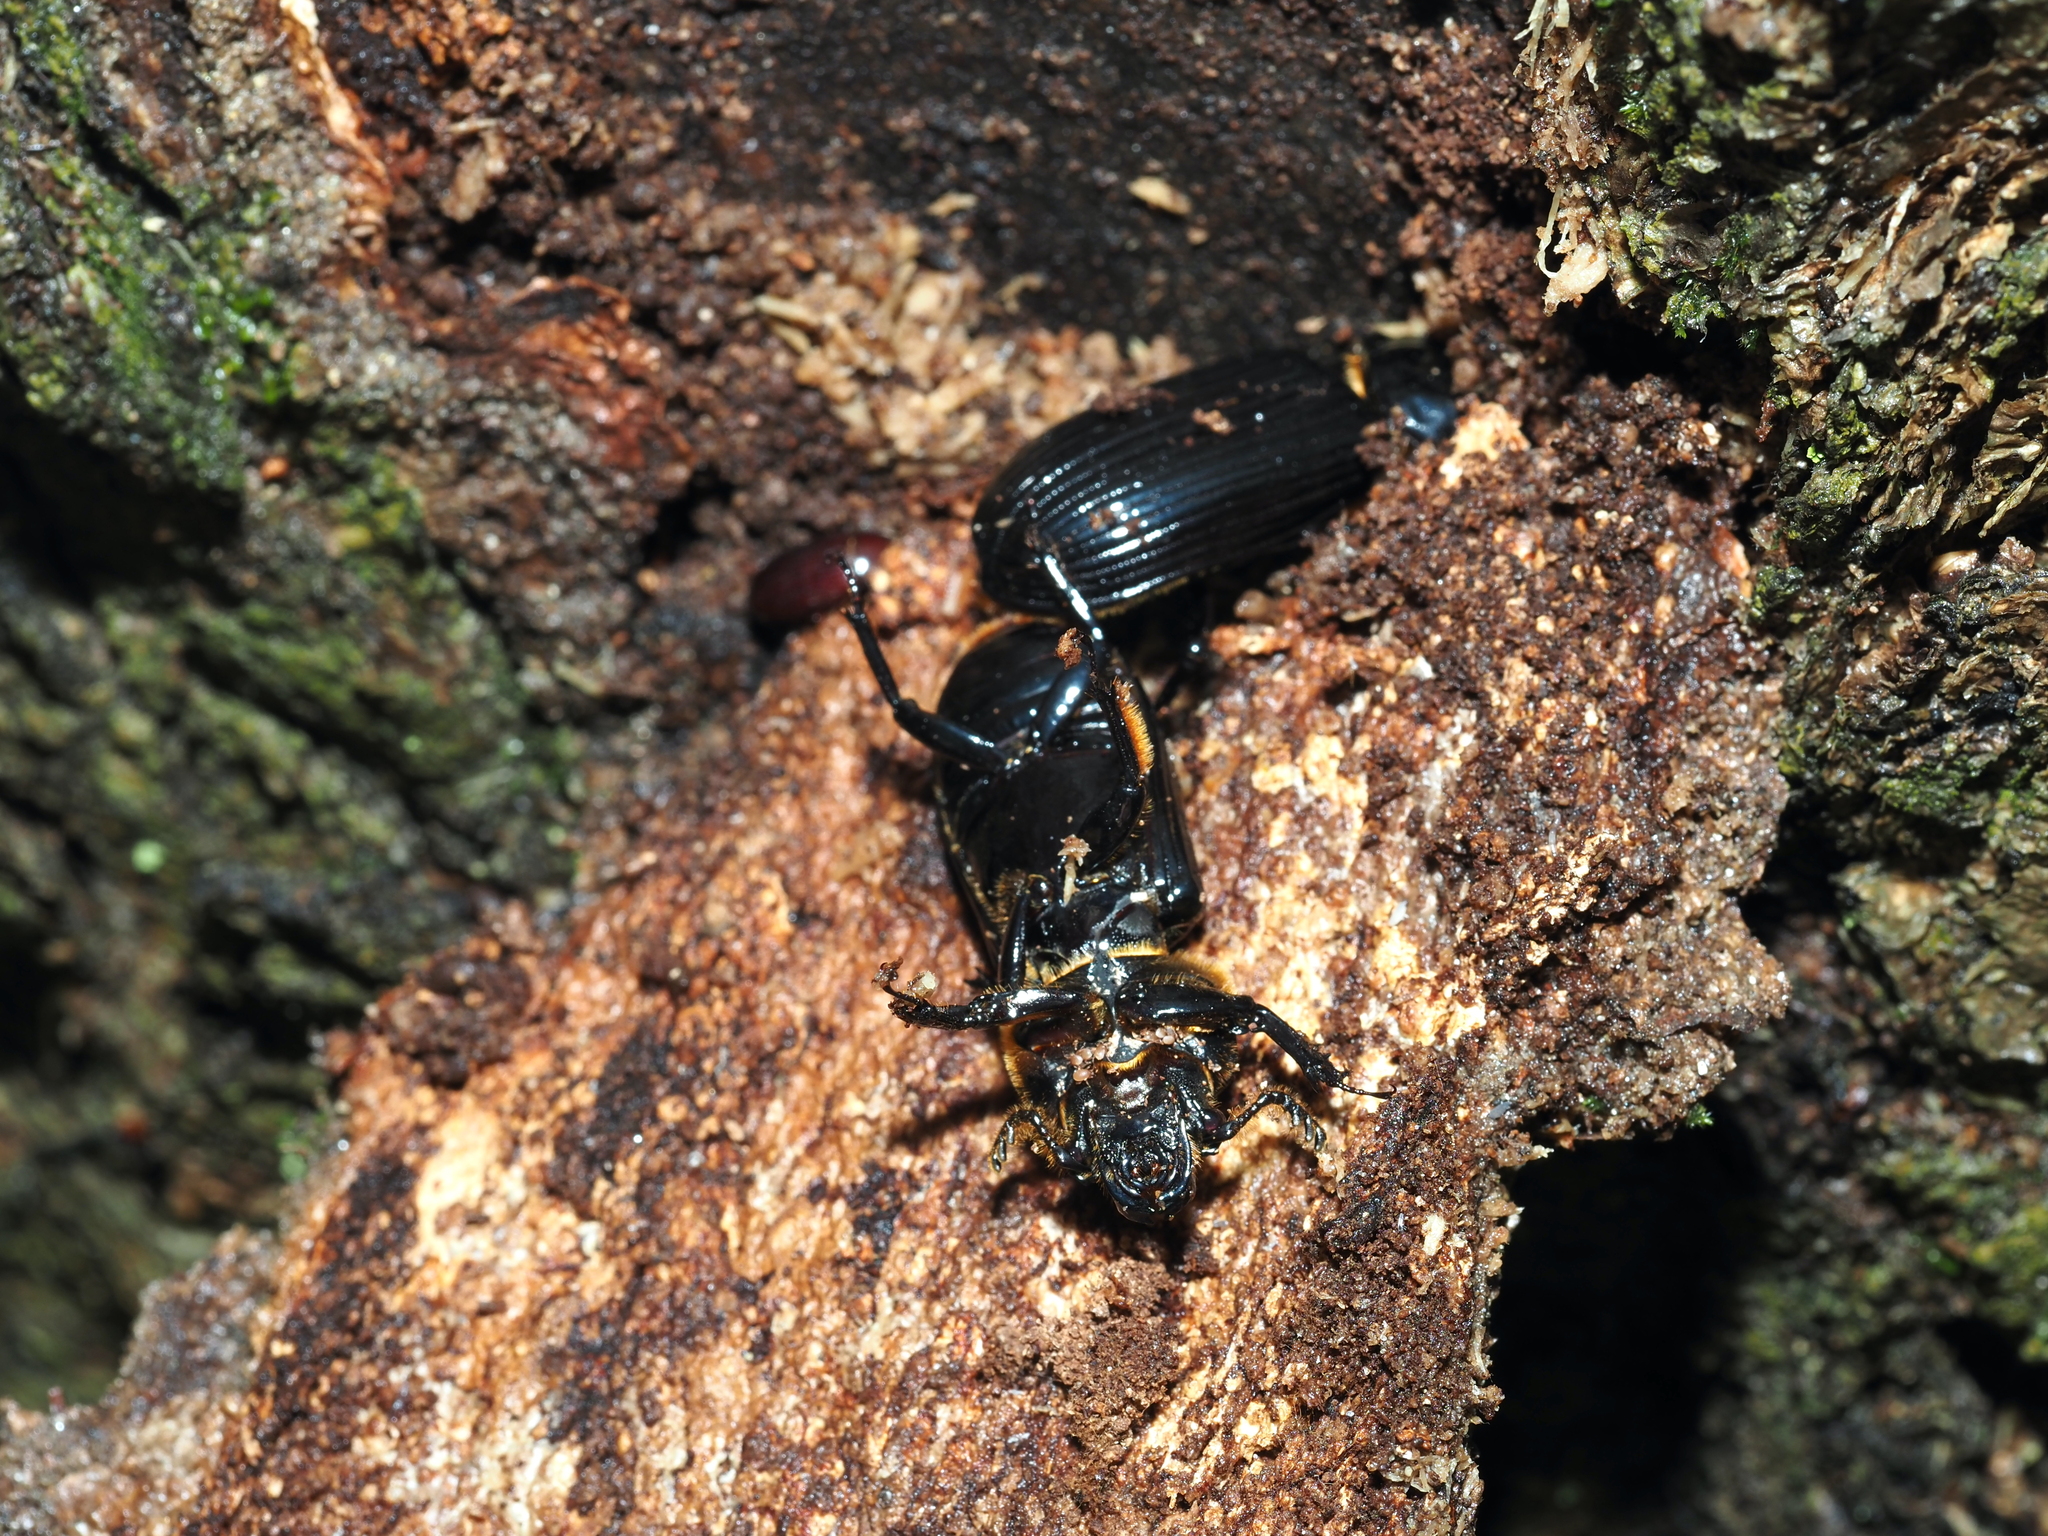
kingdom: Animalia
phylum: Arthropoda
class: Insecta
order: Coleoptera
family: Passalidae
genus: Odontotaenius
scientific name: Odontotaenius disjunctus
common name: Patent leather beetle
